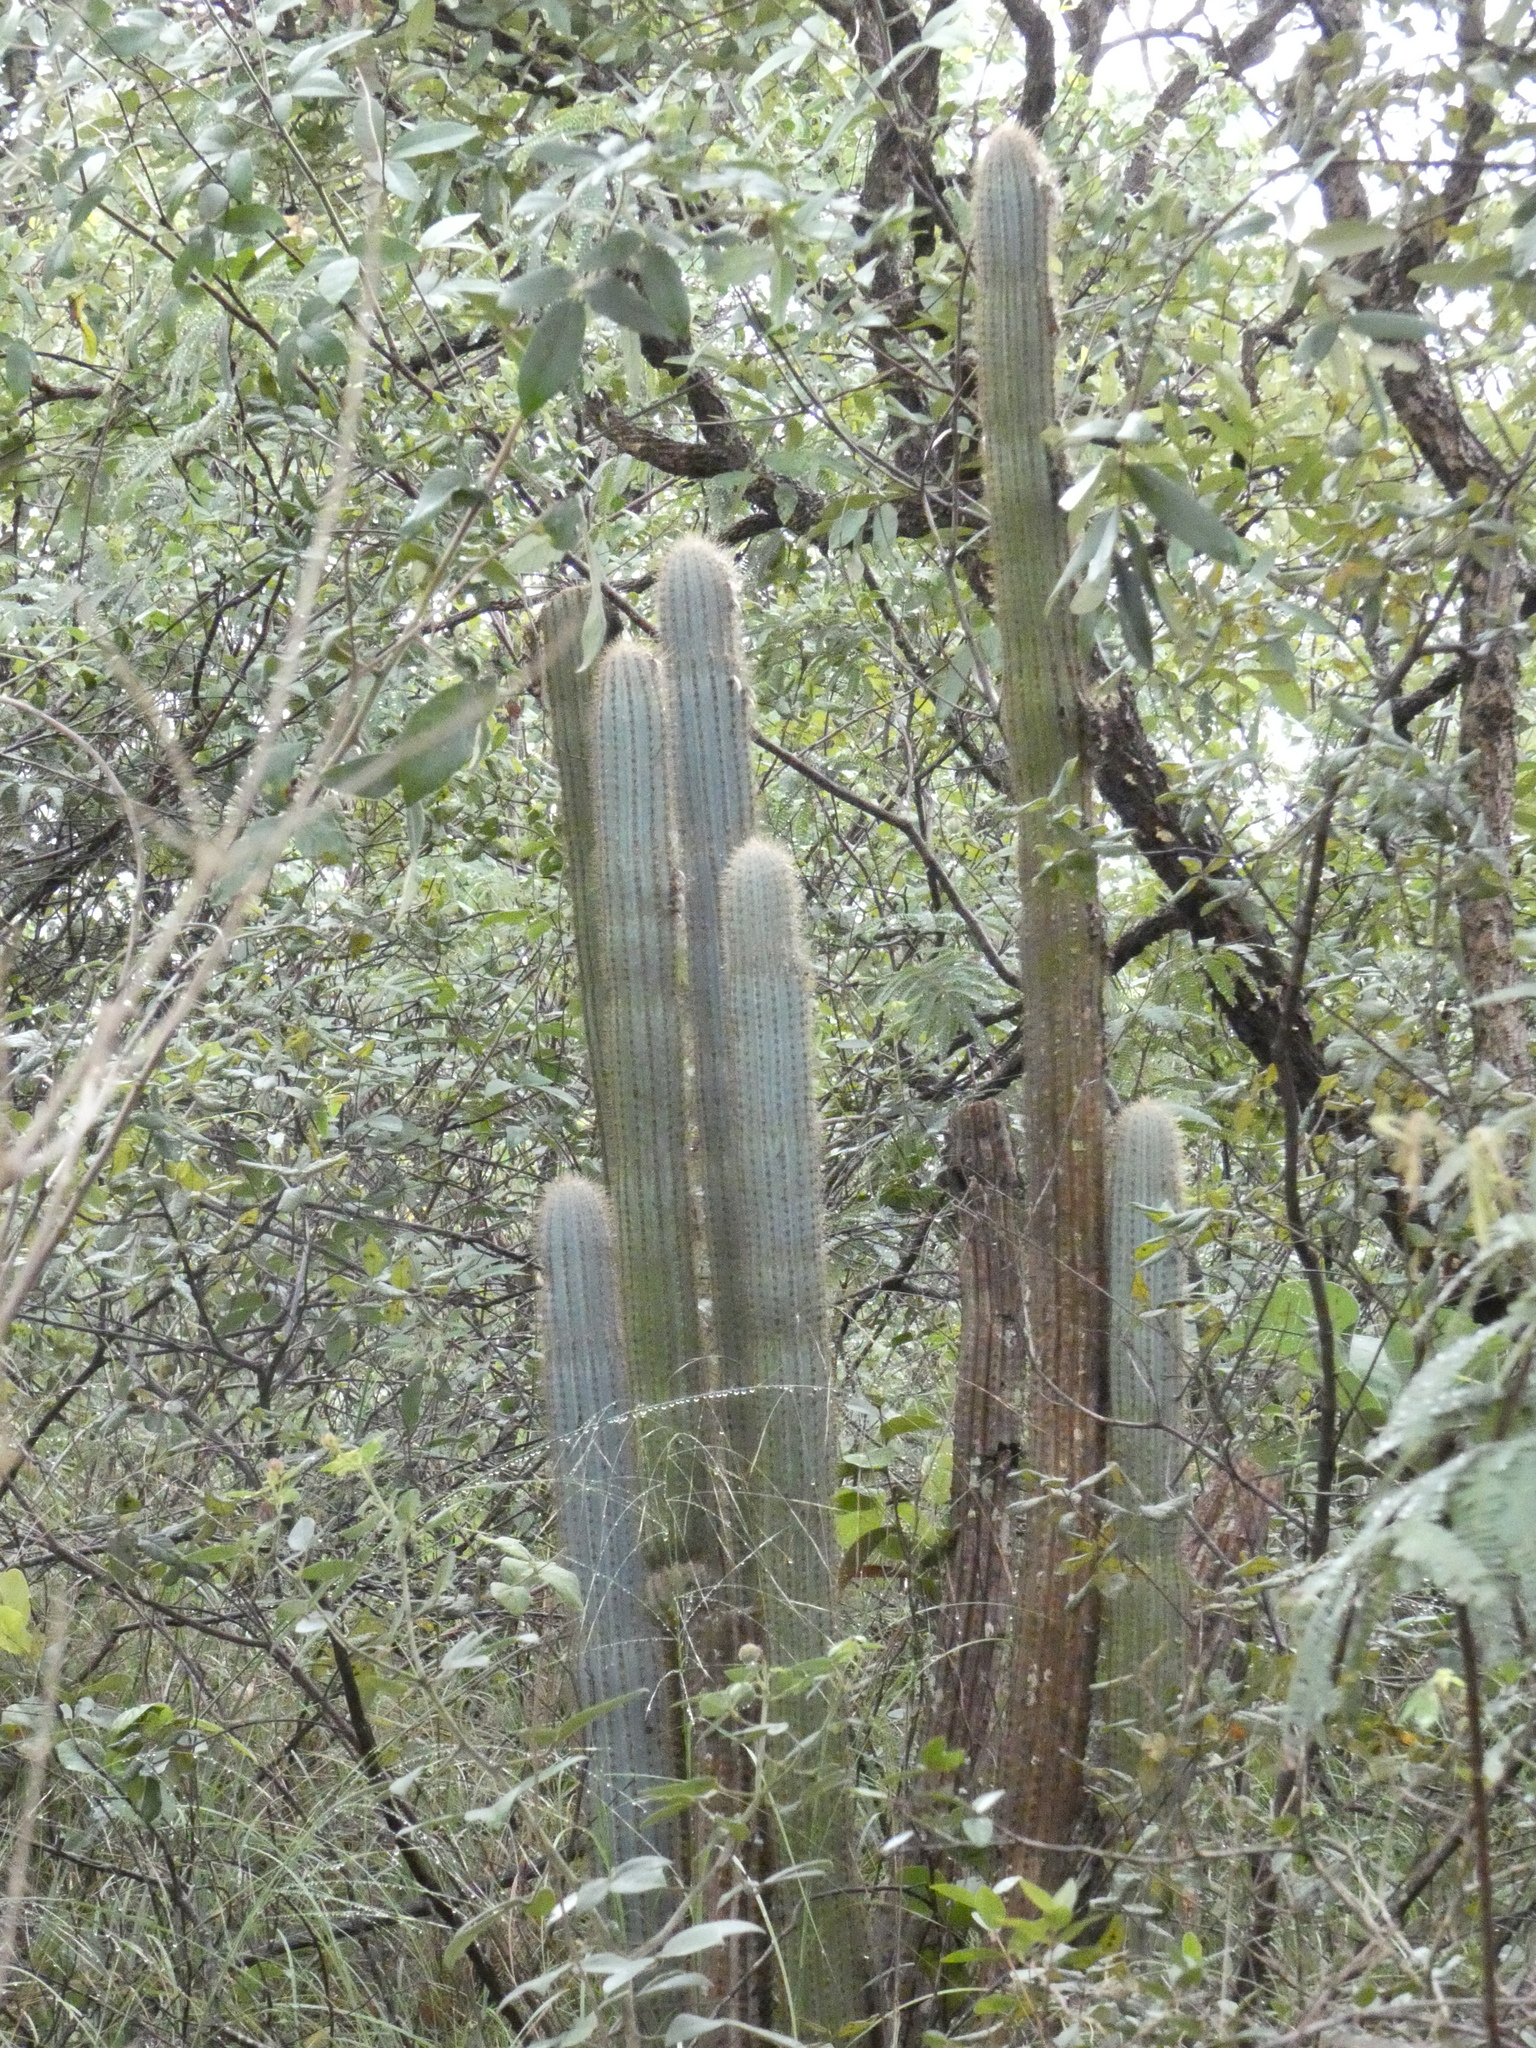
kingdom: Plantae
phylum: Tracheophyta
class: Magnoliopsida
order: Caryophyllales
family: Cactaceae
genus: Pilosocereus
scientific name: Pilosocereus aurisetus
